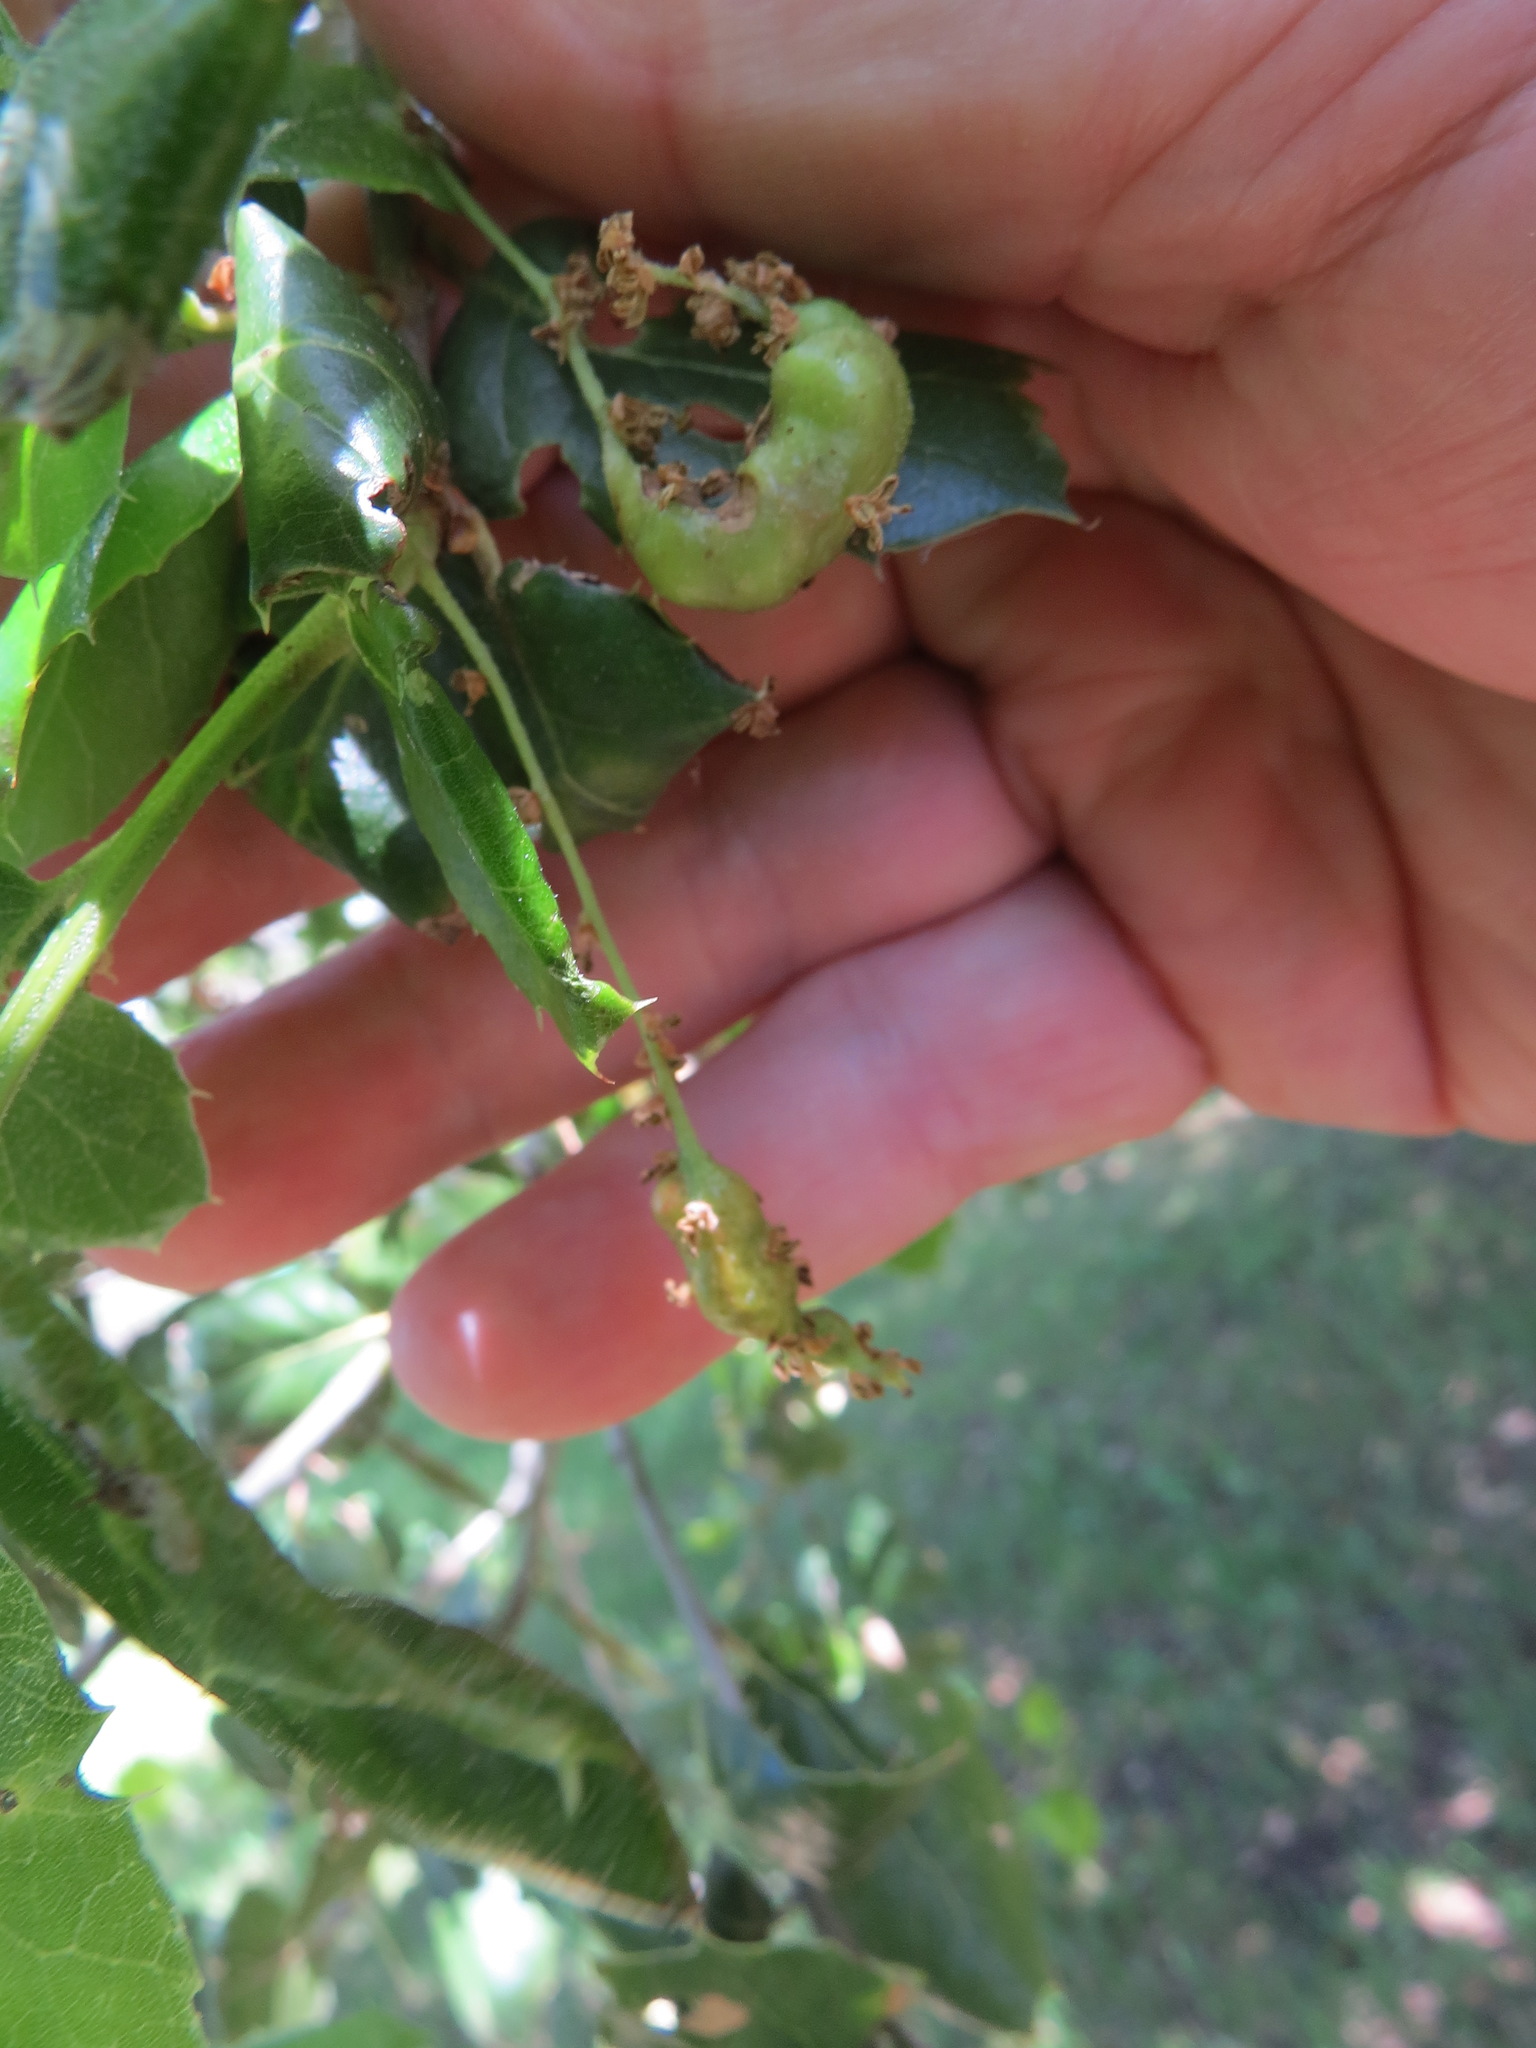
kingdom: Animalia
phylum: Arthropoda
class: Insecta
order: Hymenoptera
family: Cynipidae
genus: Callirhytis
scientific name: Callirhytis
